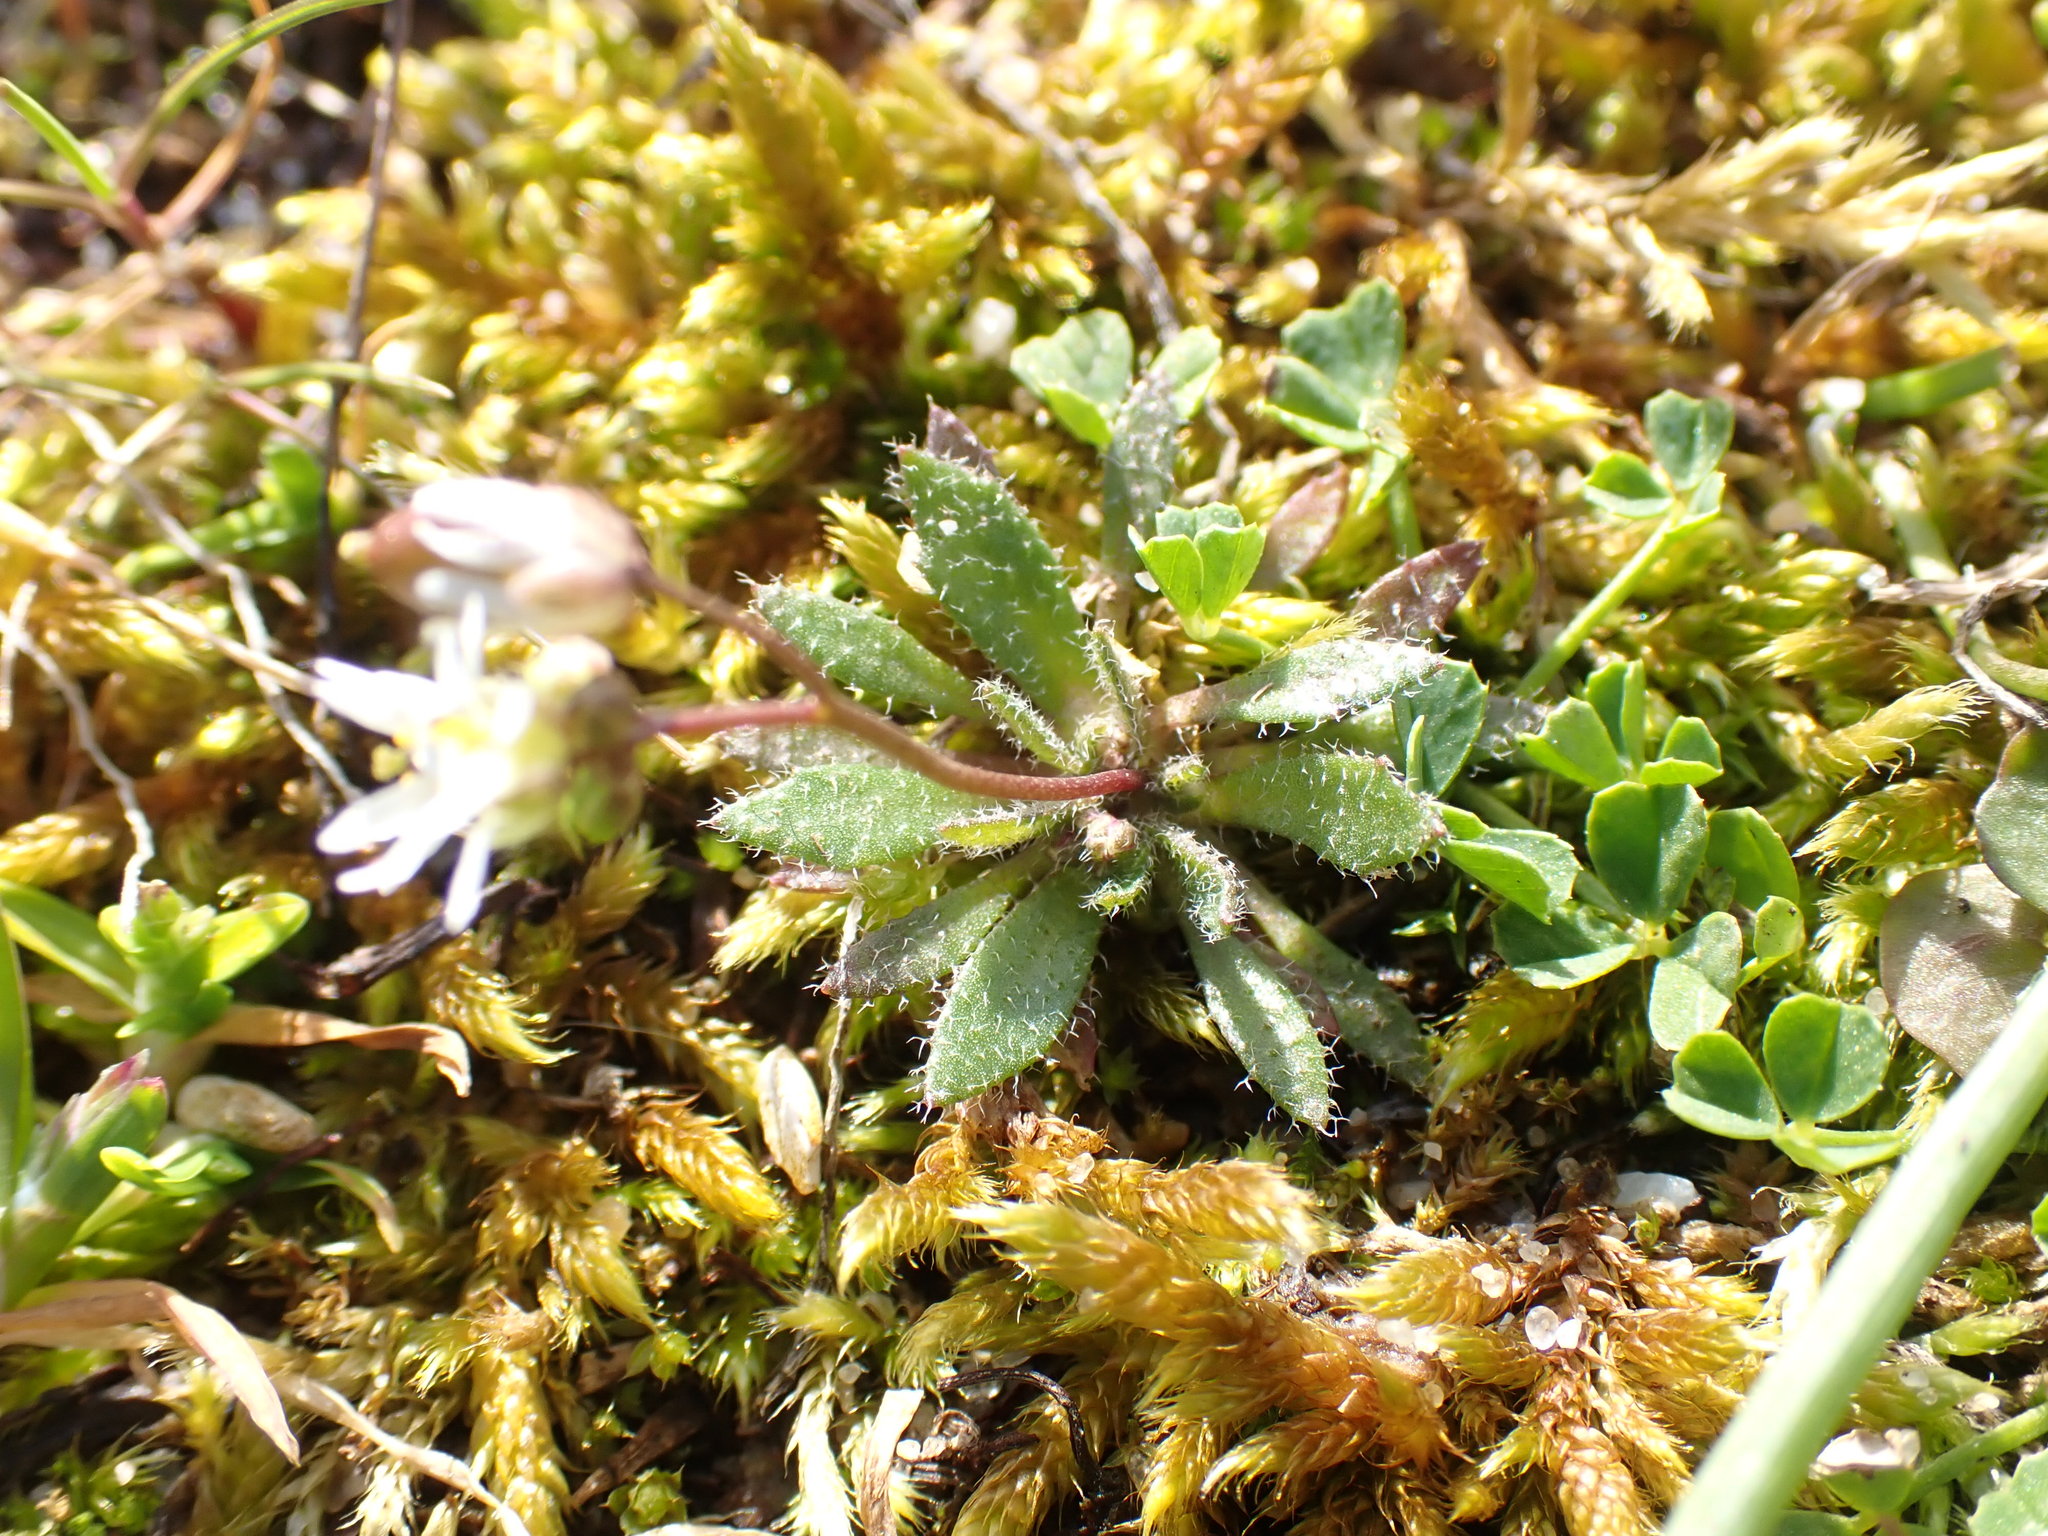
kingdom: Plantae
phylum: Tracheophyta
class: Magnoliopsida
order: Brassicales
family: Brassicaceae
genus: Draba
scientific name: Draba verna
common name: Spring draba
